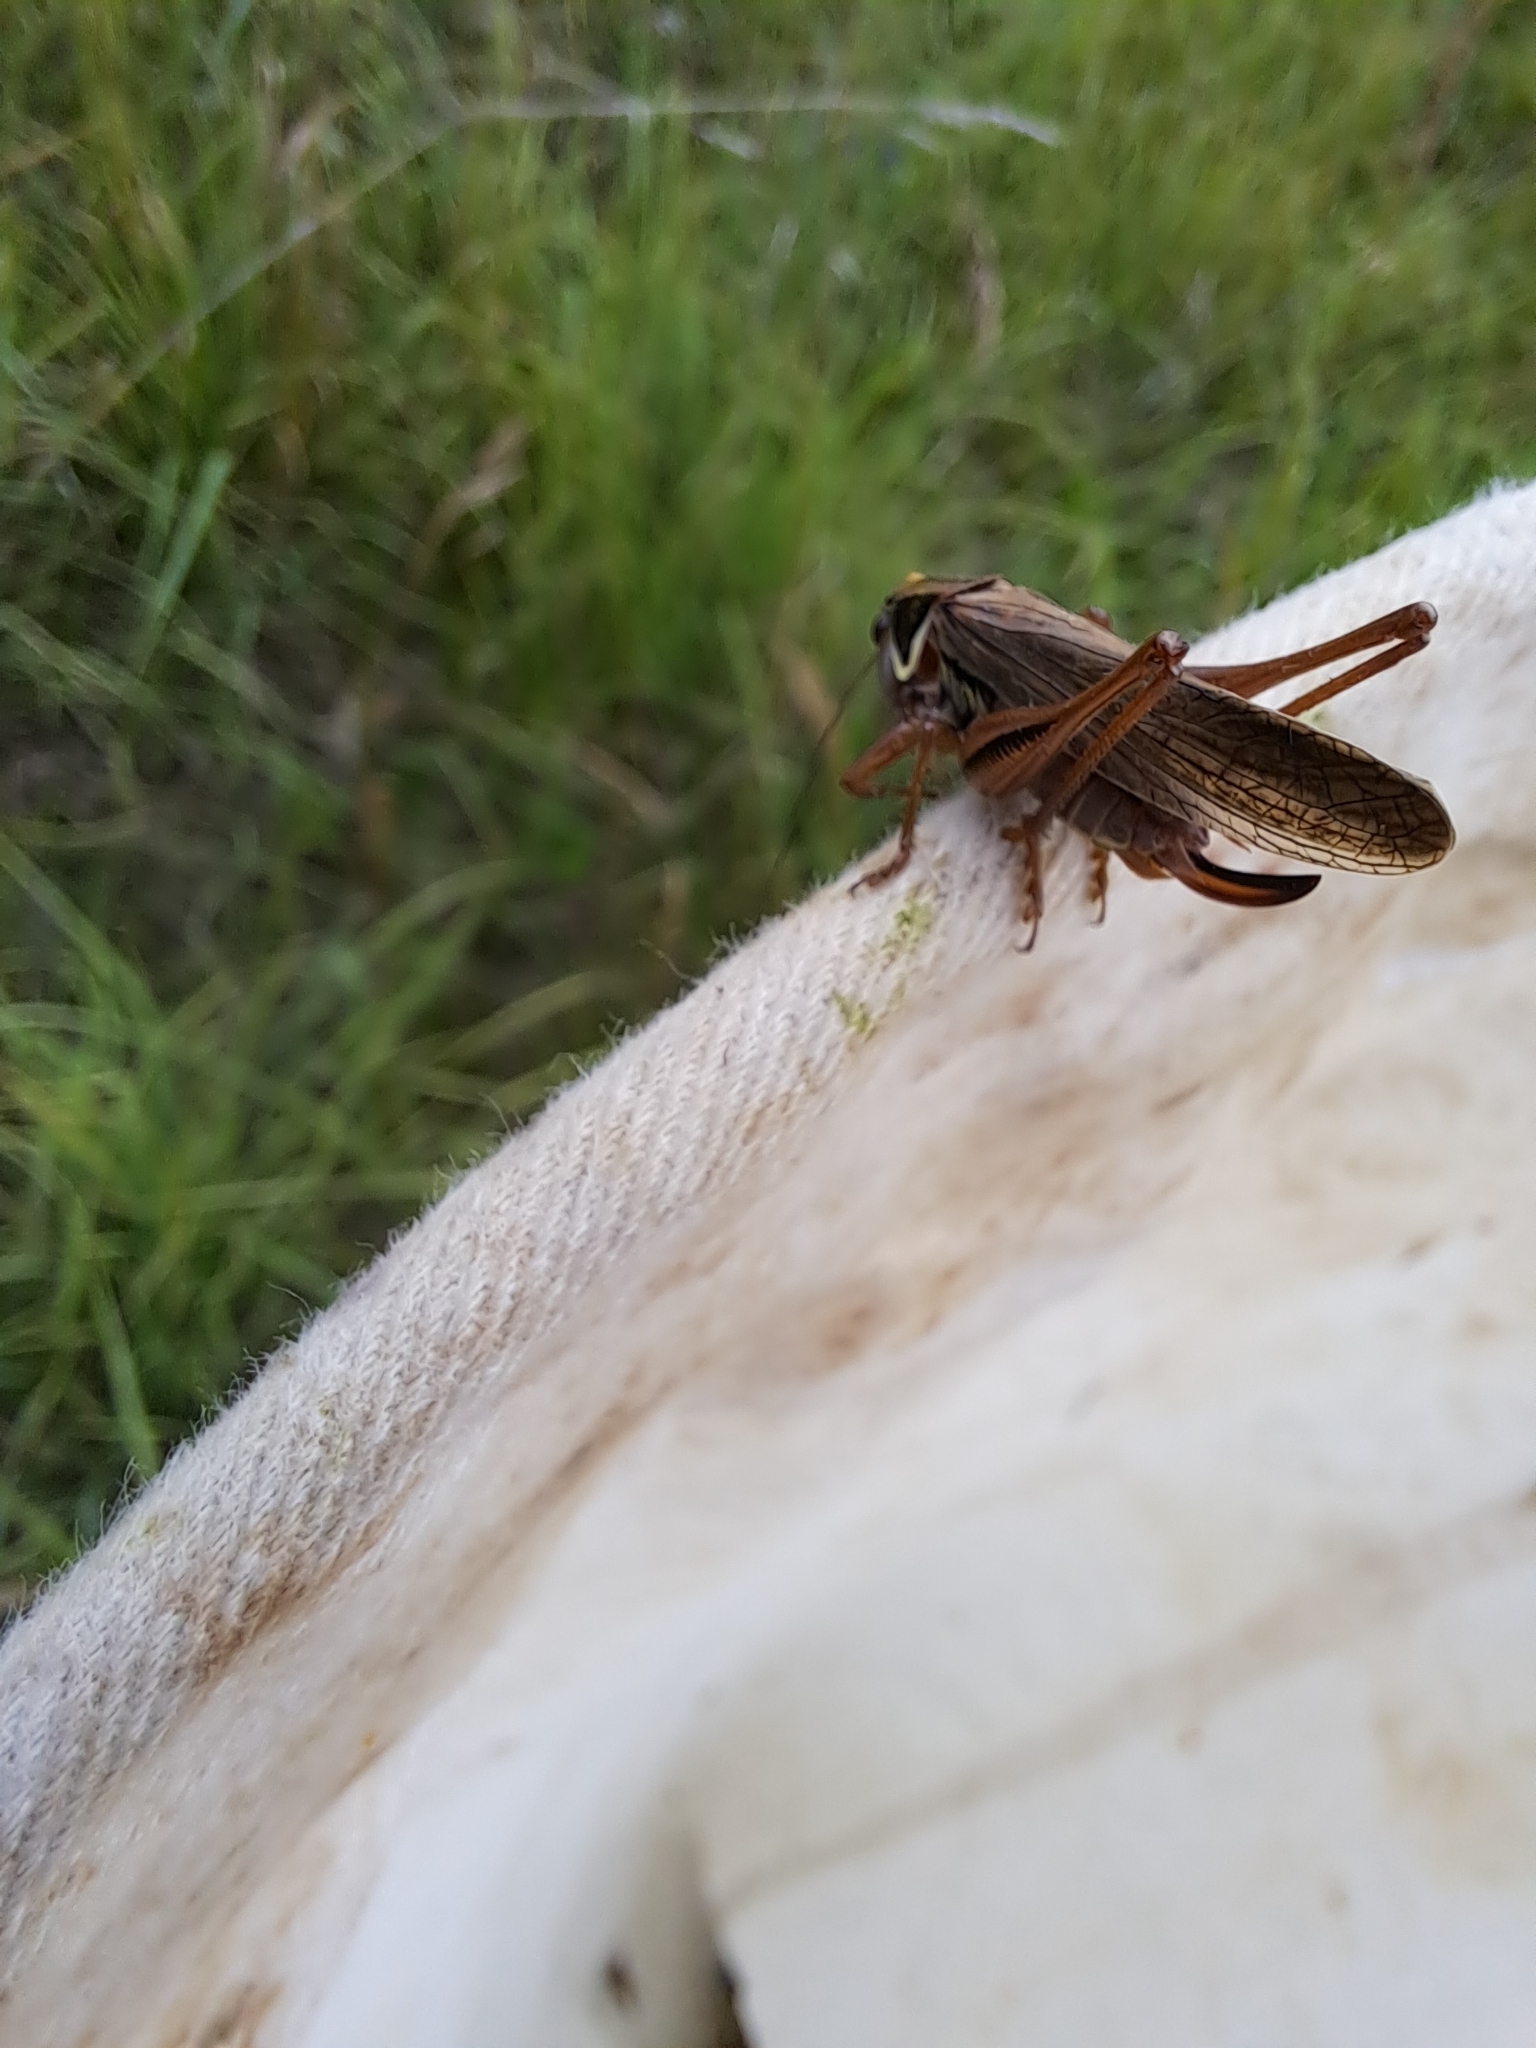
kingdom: Animalia
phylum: Arthropoda
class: Insecta
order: Orthoptera
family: Tettigoniidae
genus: Roeseliana
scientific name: Roeseliana roeselii
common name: Roesel's bush cricket
